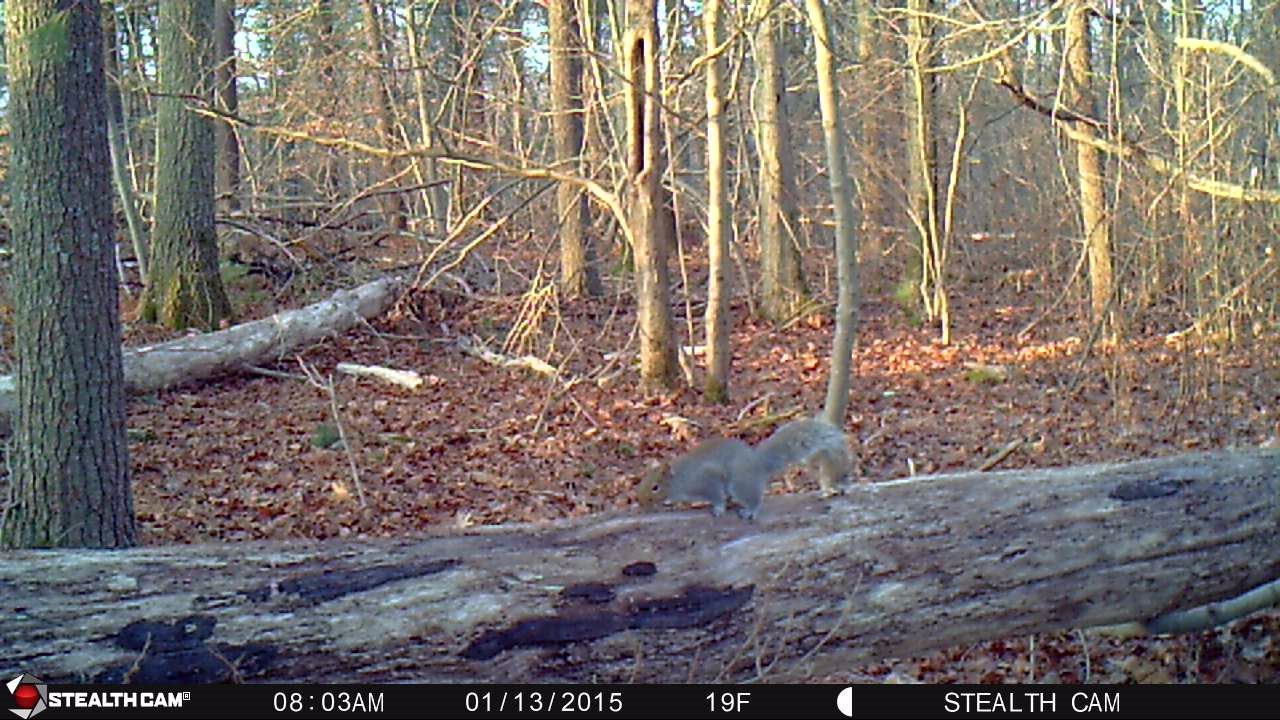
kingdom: Animalia
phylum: Chordata
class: Mammalia
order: Rodentia
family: Sciuridae
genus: Sciurus
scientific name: Sciurus carolinensis
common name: Eastern gray squirrel
